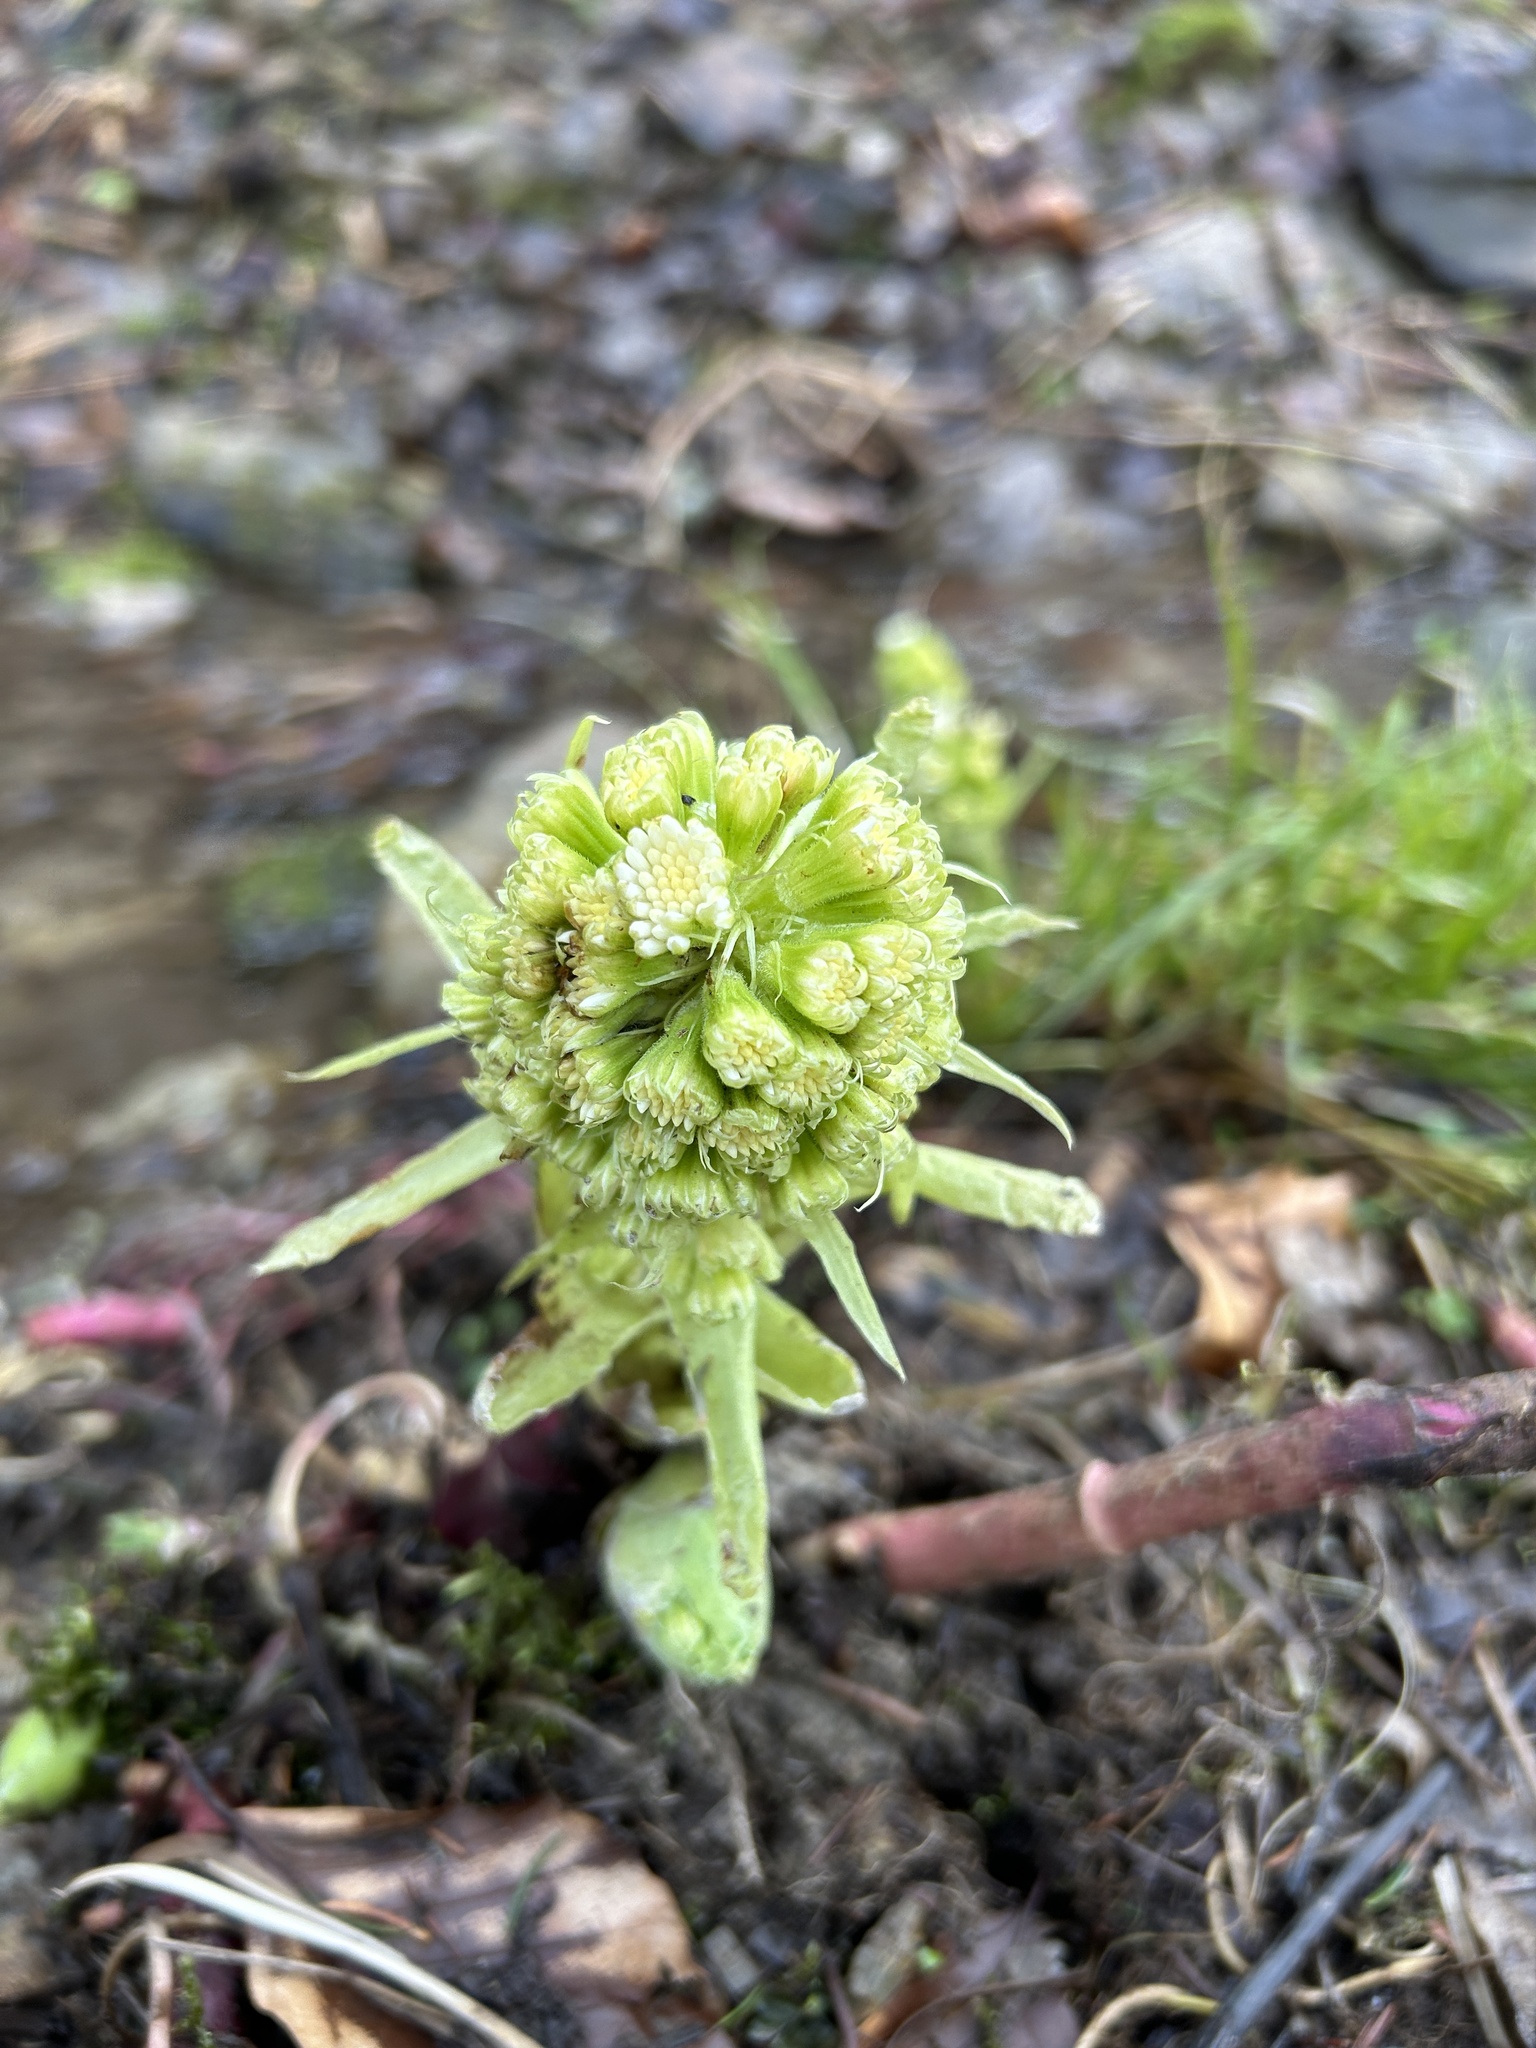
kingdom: Plantae
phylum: Tracheophyta
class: Magnoliopsida
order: Asterales
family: Asteraceae
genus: Petasites
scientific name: Petasites albus
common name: White butterbur
